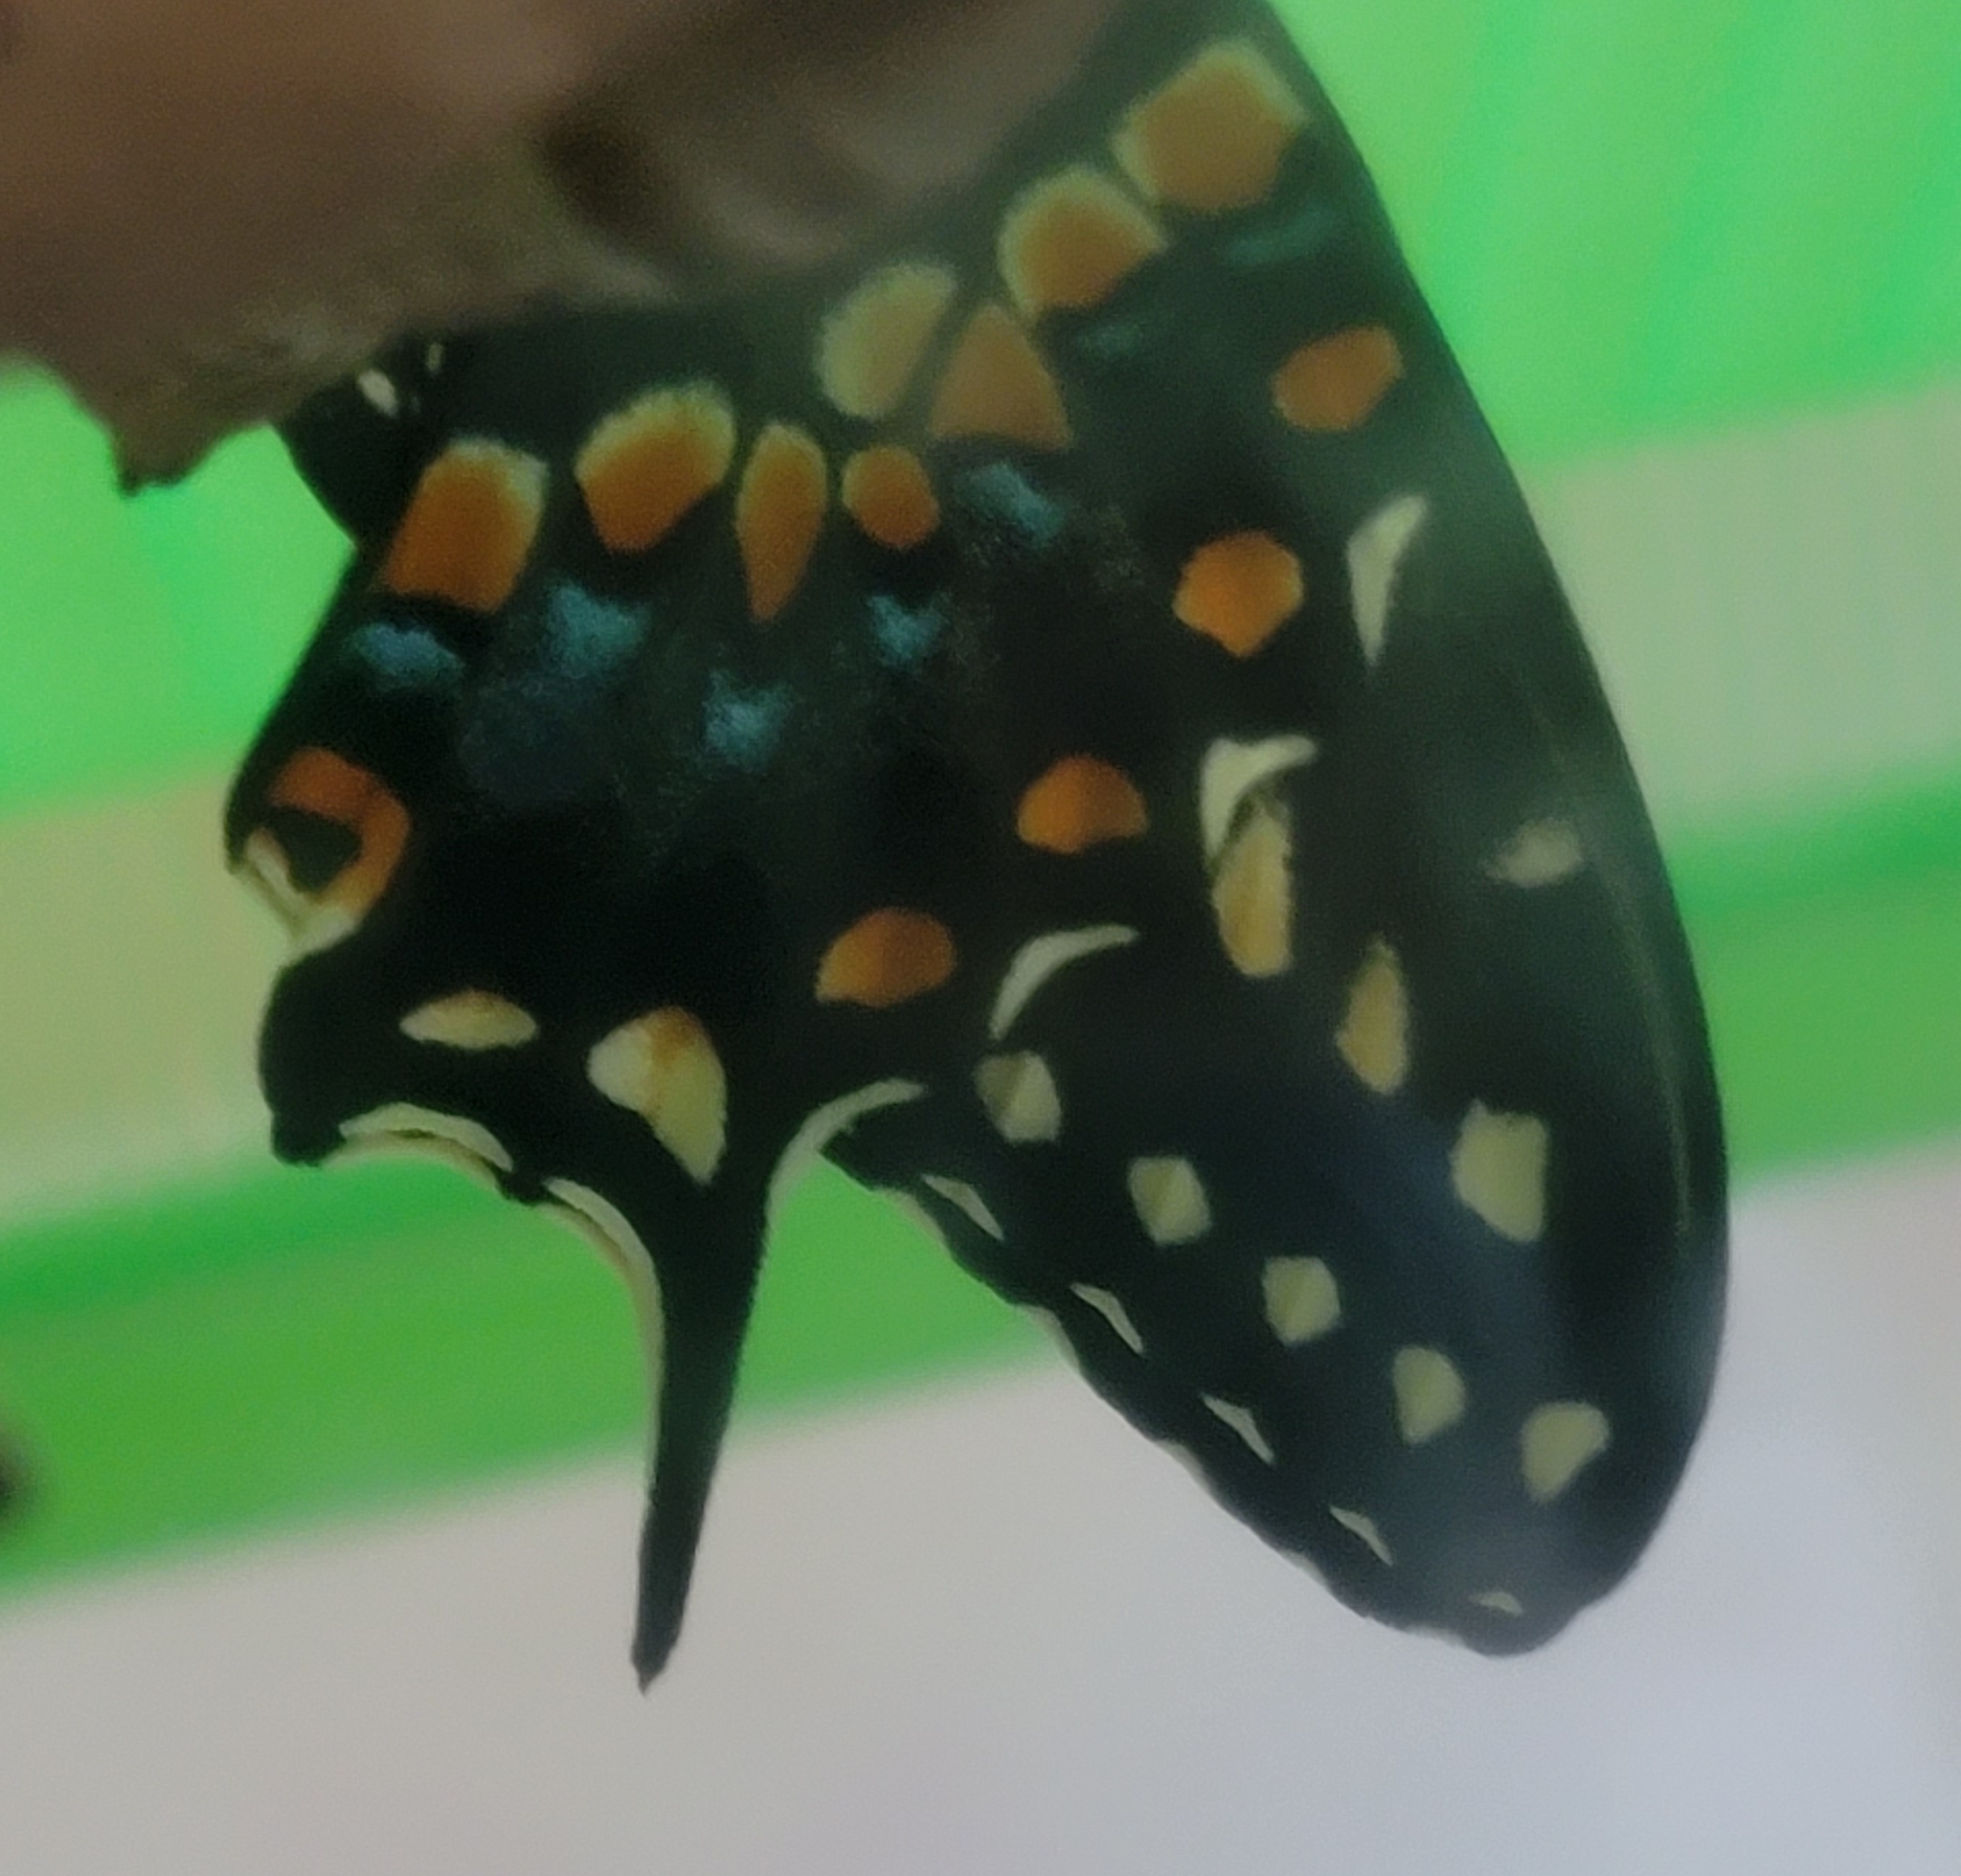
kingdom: Animalia
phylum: Arthropoda
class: Insecta
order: Lepidoptera
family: Papilionidae
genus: Papilio
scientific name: Papilio polyxenes
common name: Black swallowtail
